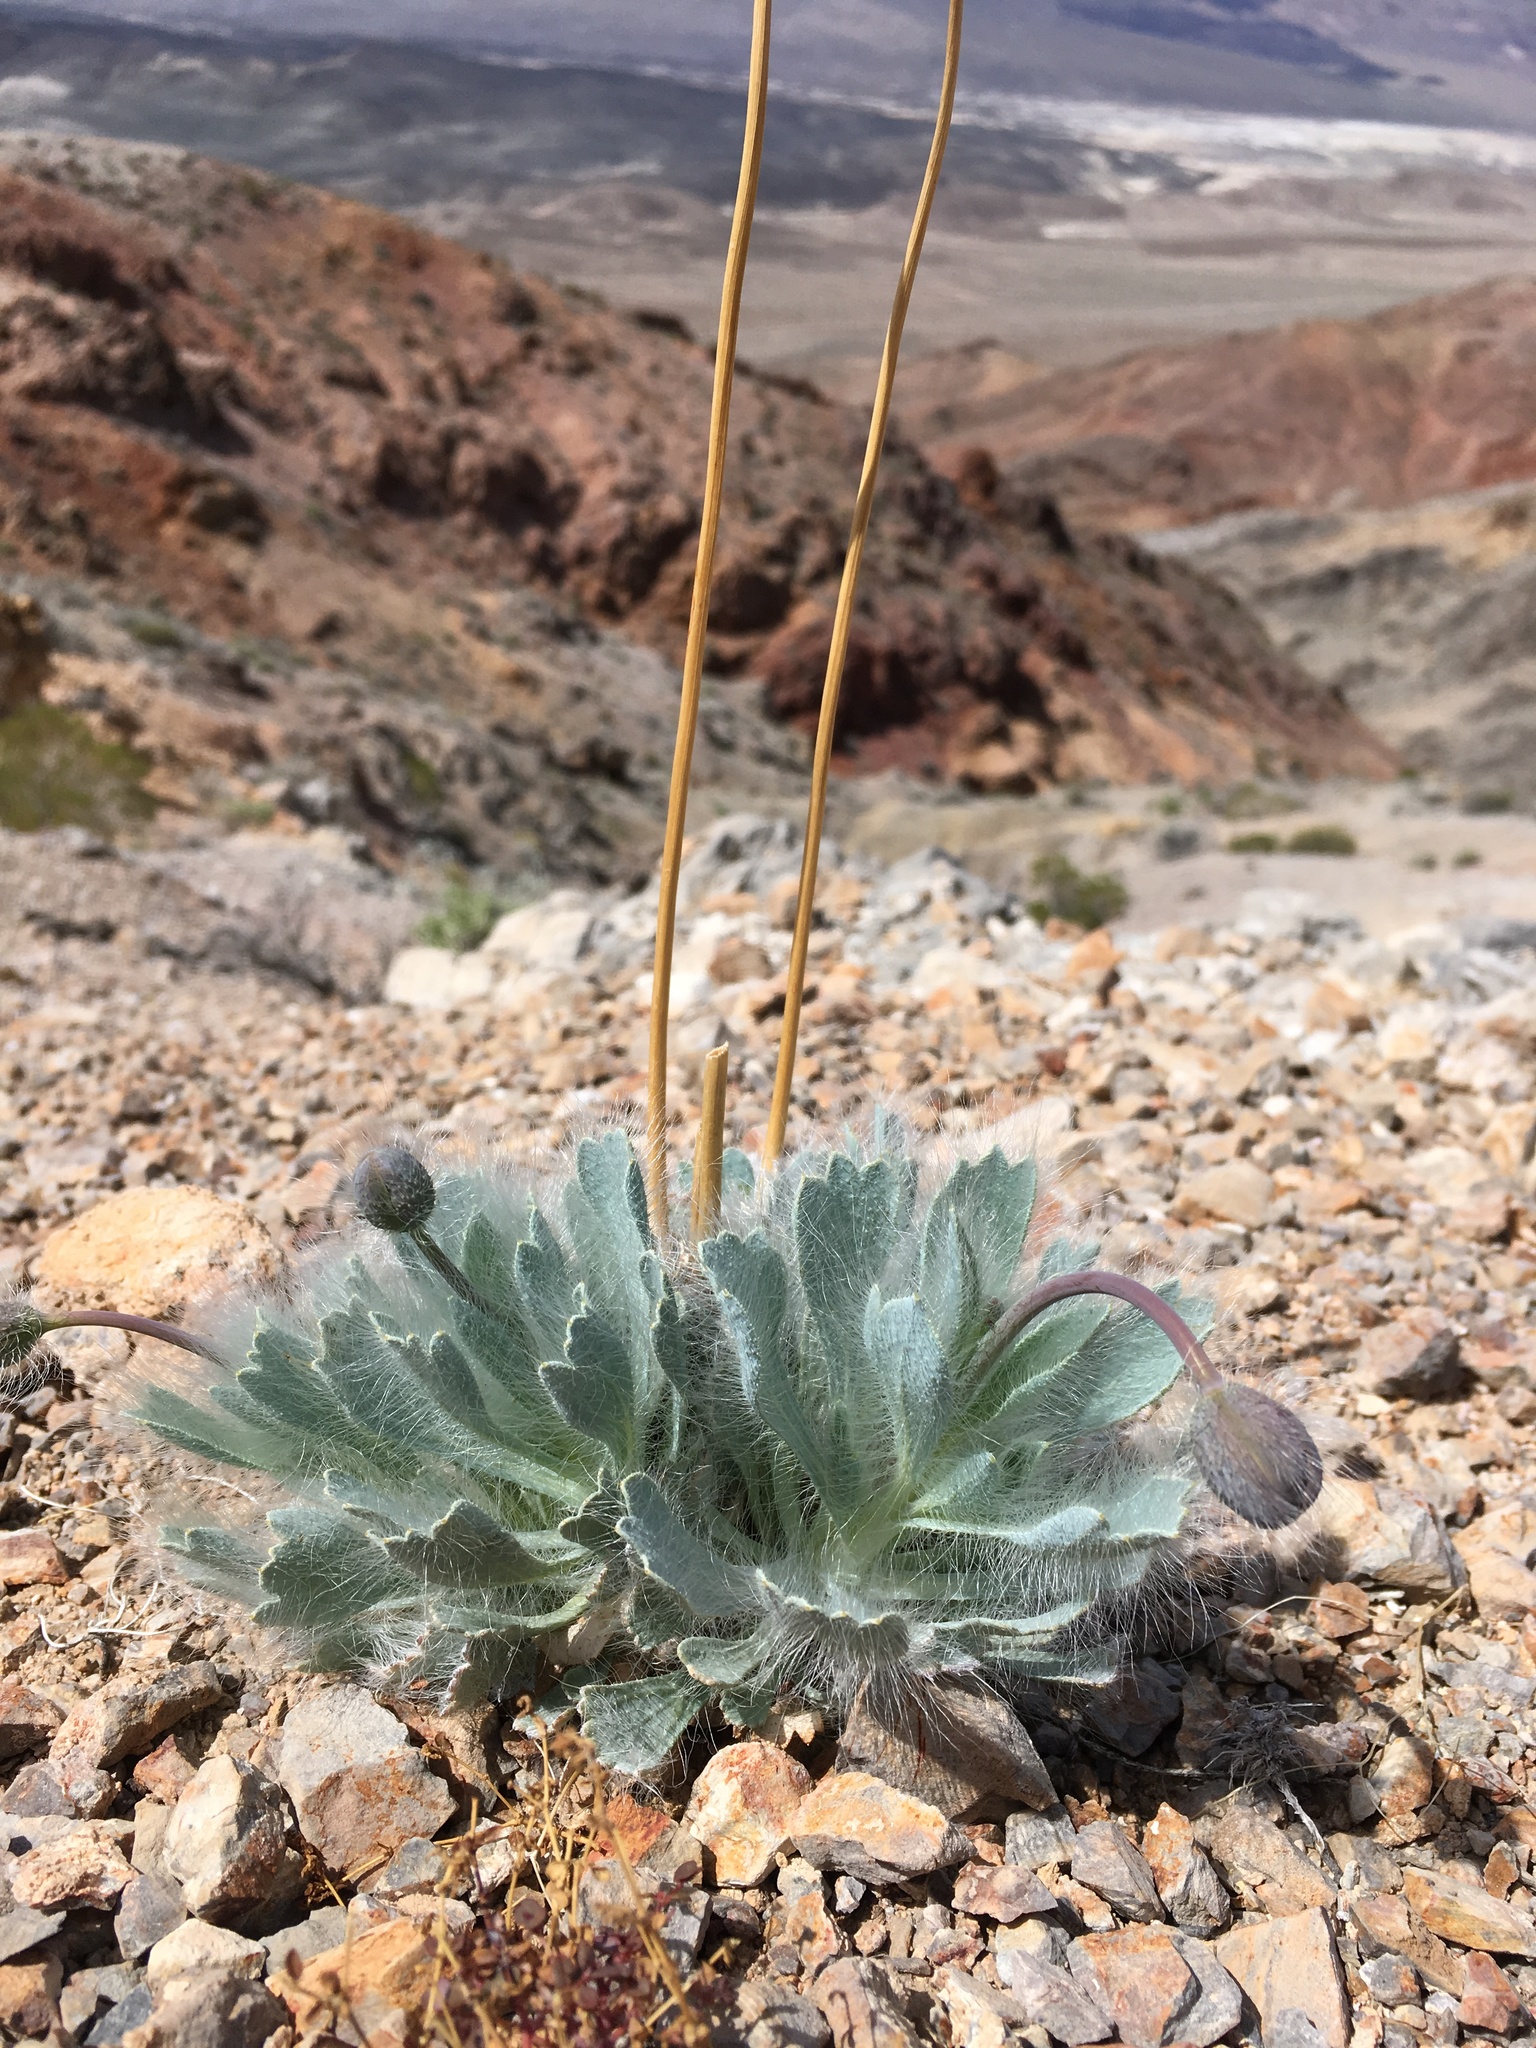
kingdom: Plantae
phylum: Tracheophyta
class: Magnoliopsida
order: Ranunculales
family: Papaveraceae
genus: Arctomecon
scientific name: Arctomecon merriamii
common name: White bear-poppy
